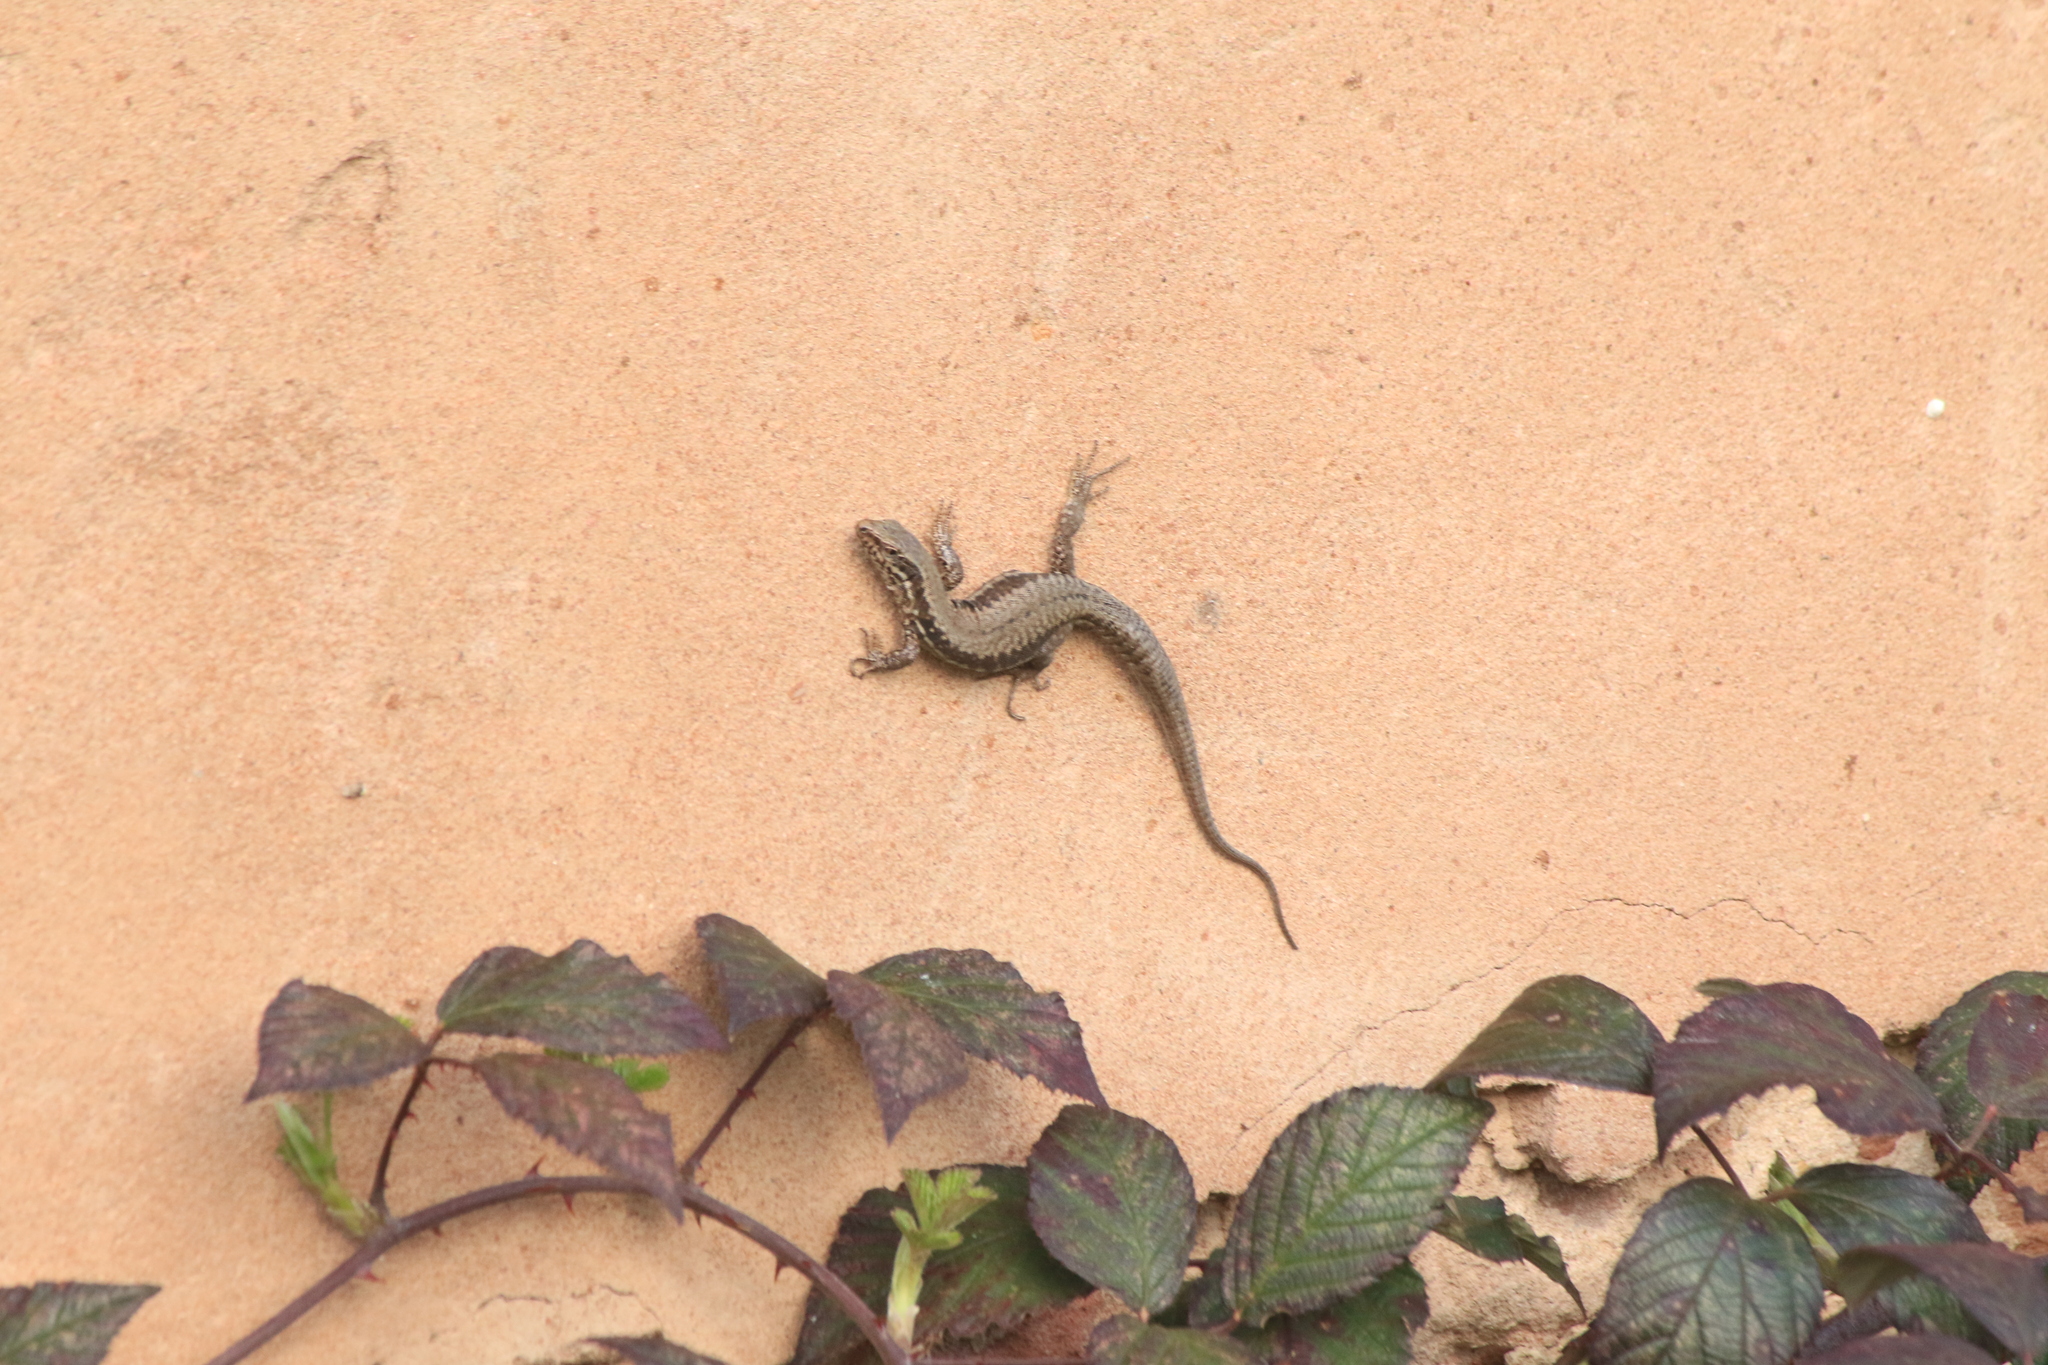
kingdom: Animalia
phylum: Chordata
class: Squamata
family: Lacertidae
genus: Podarcis
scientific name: Podarcis muralis
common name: Common wall lizard
